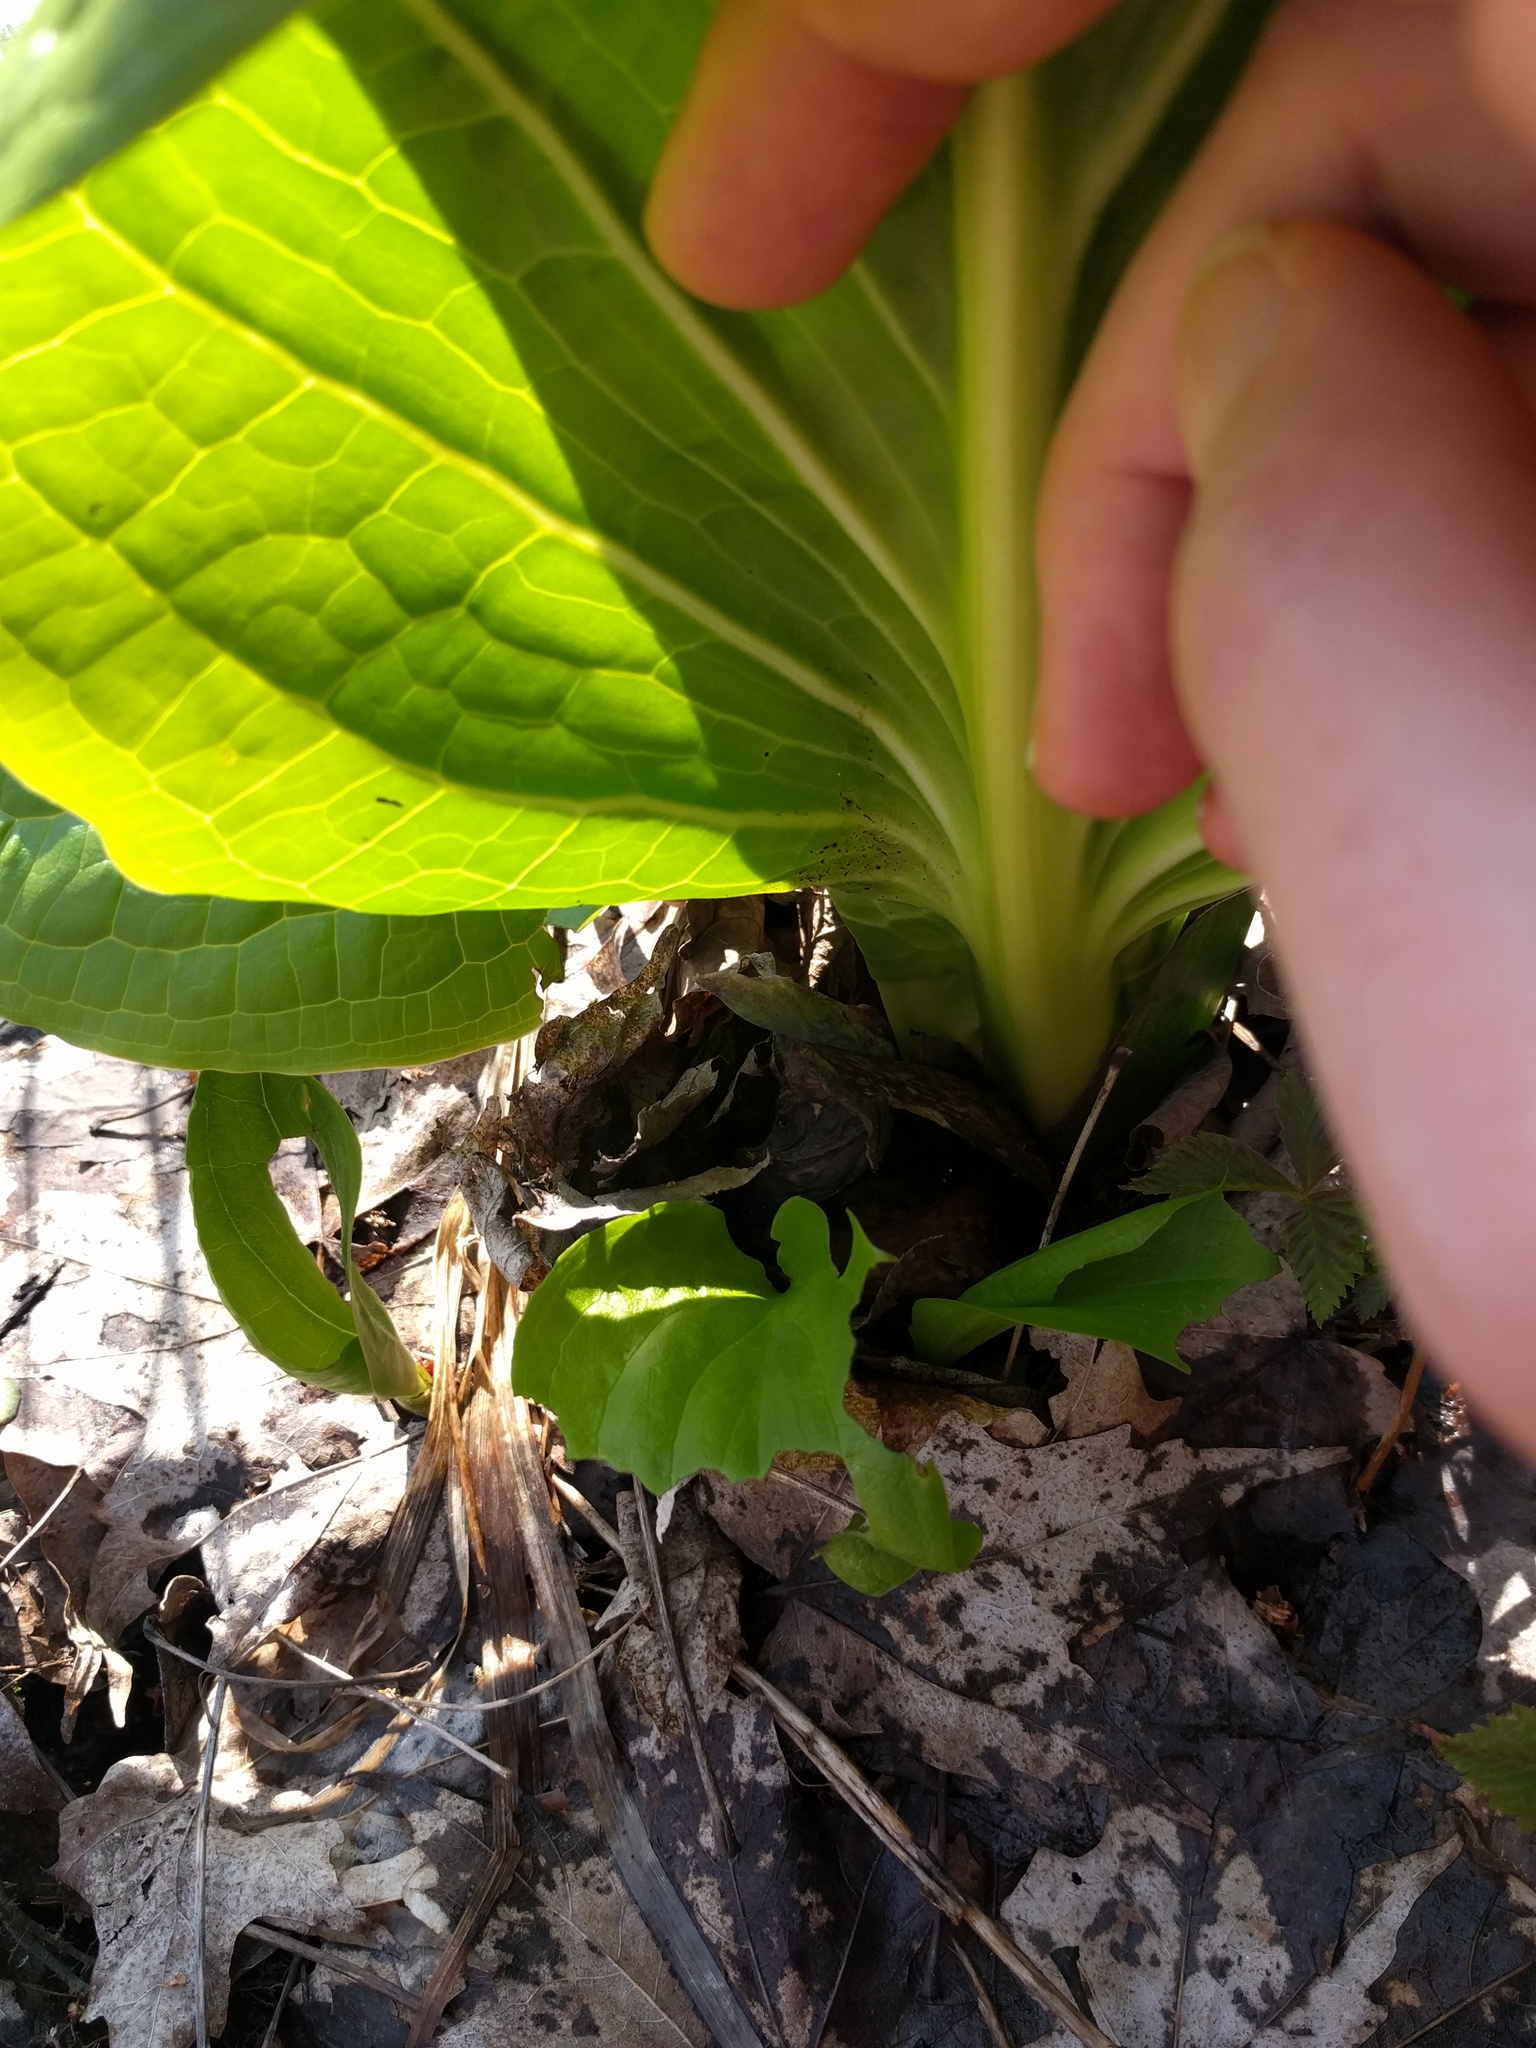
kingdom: Plantae
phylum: Tracheophyta
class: Liliopsida
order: Alismatales
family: Araceae
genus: Symplocarpus
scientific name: Symplocarpus foetidus
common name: Eastern skunk cabbage
